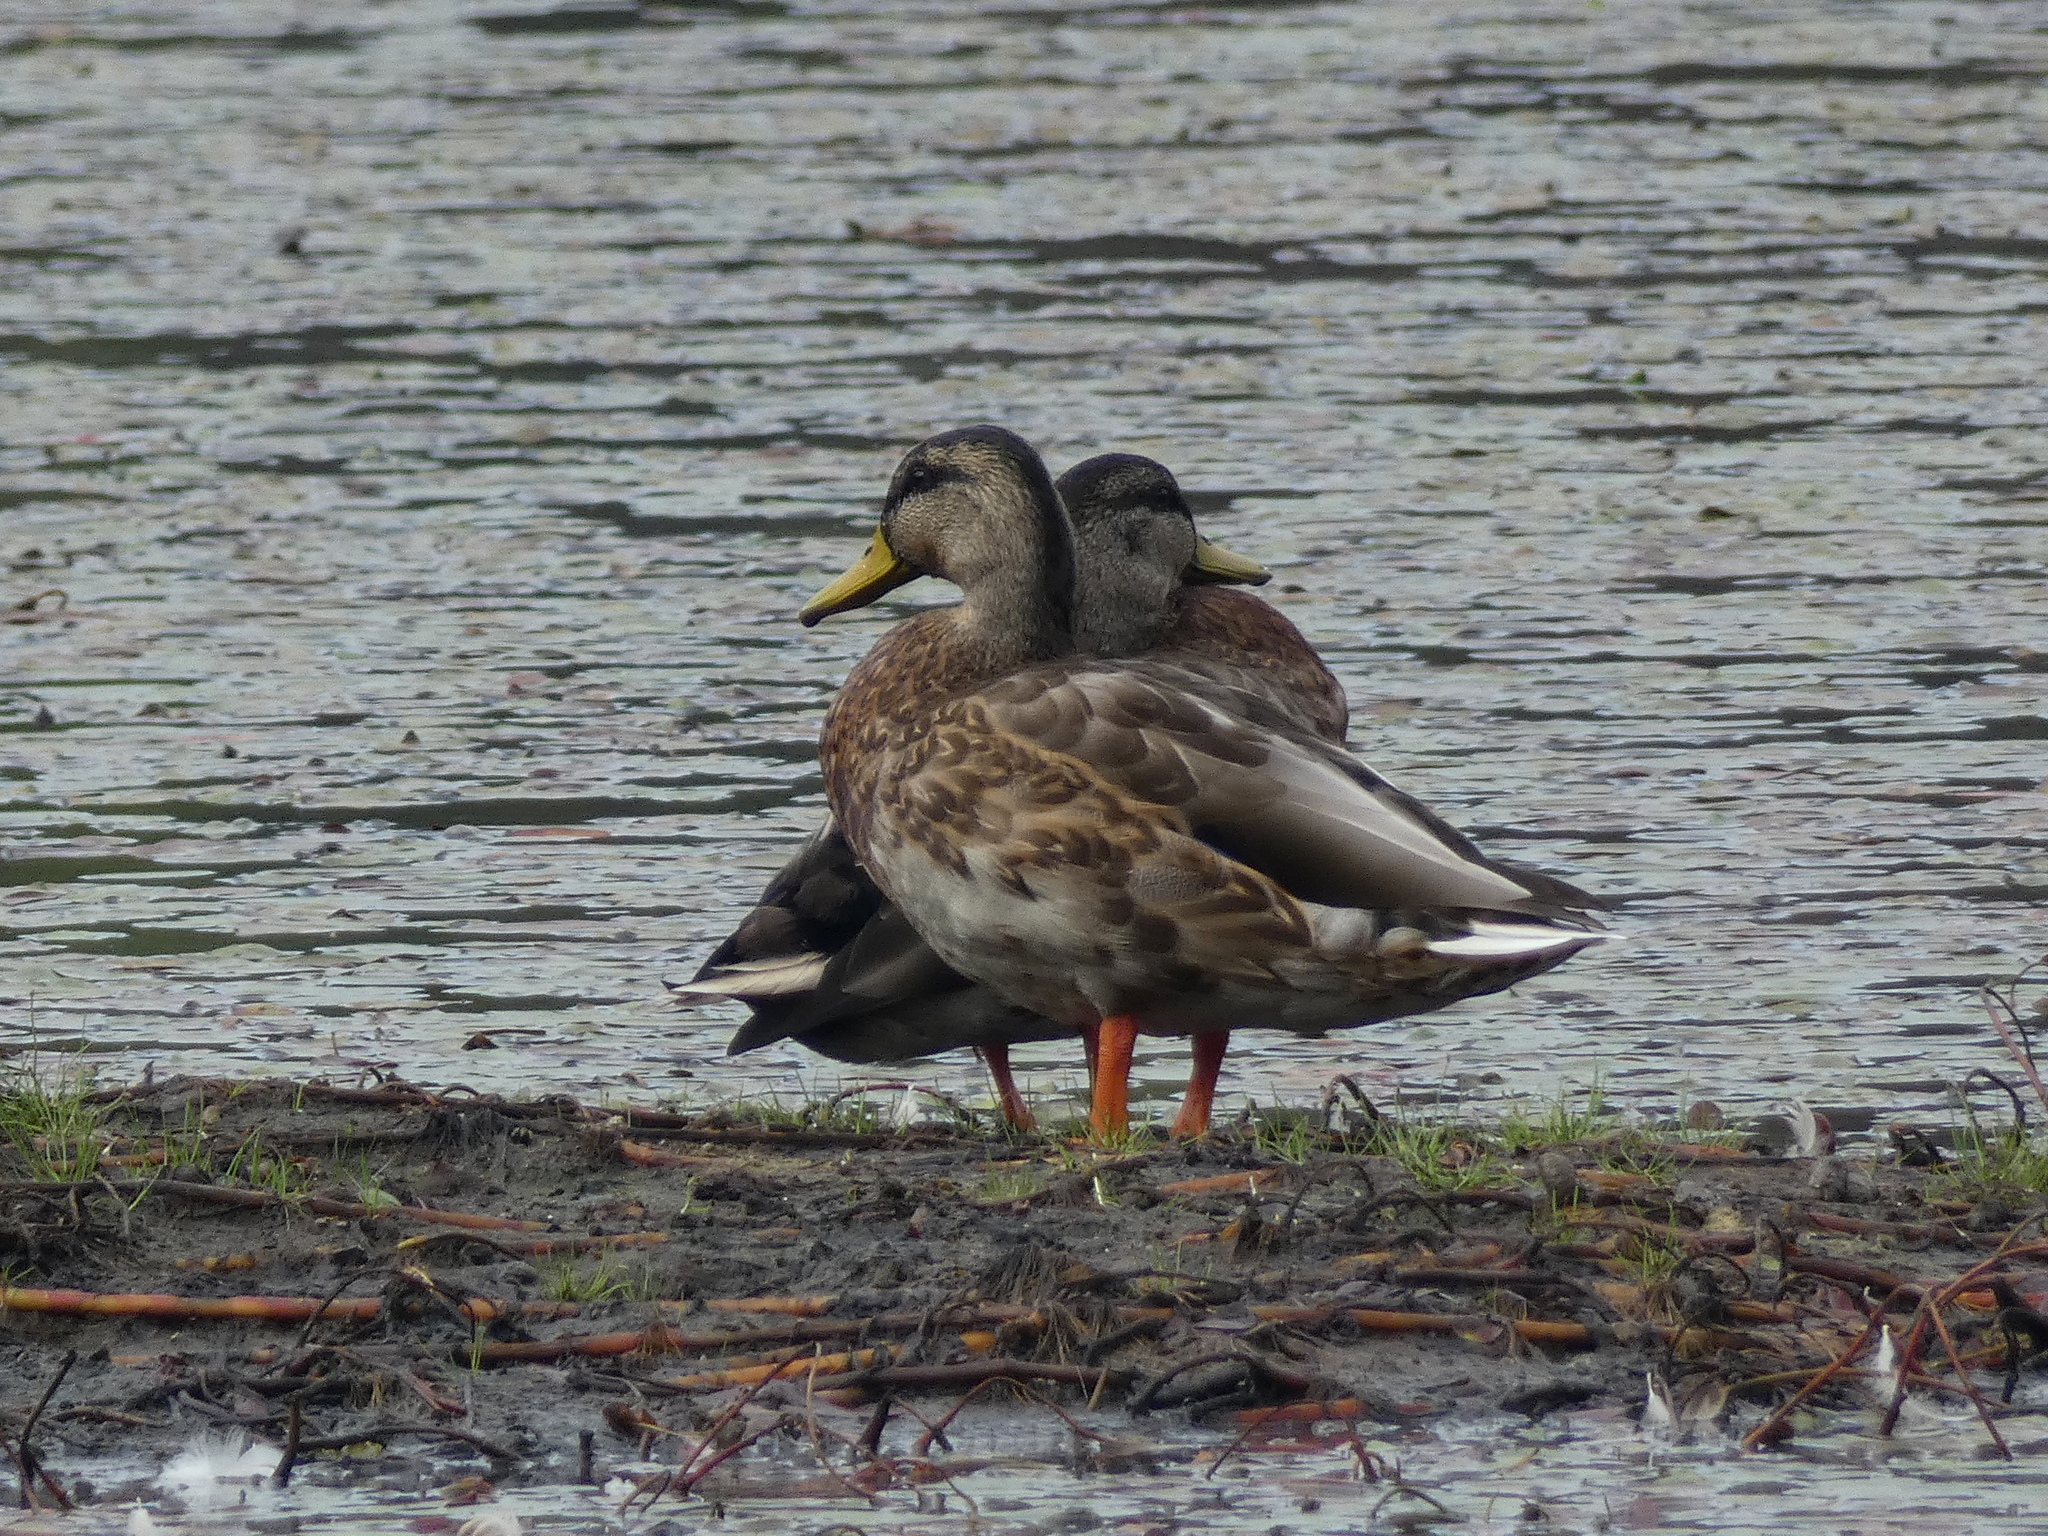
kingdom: Animalia
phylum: Chordata
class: Aves
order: Anseriformes
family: Anatidae
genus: Anas
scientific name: Anas platyrhynchos
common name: Mallard
